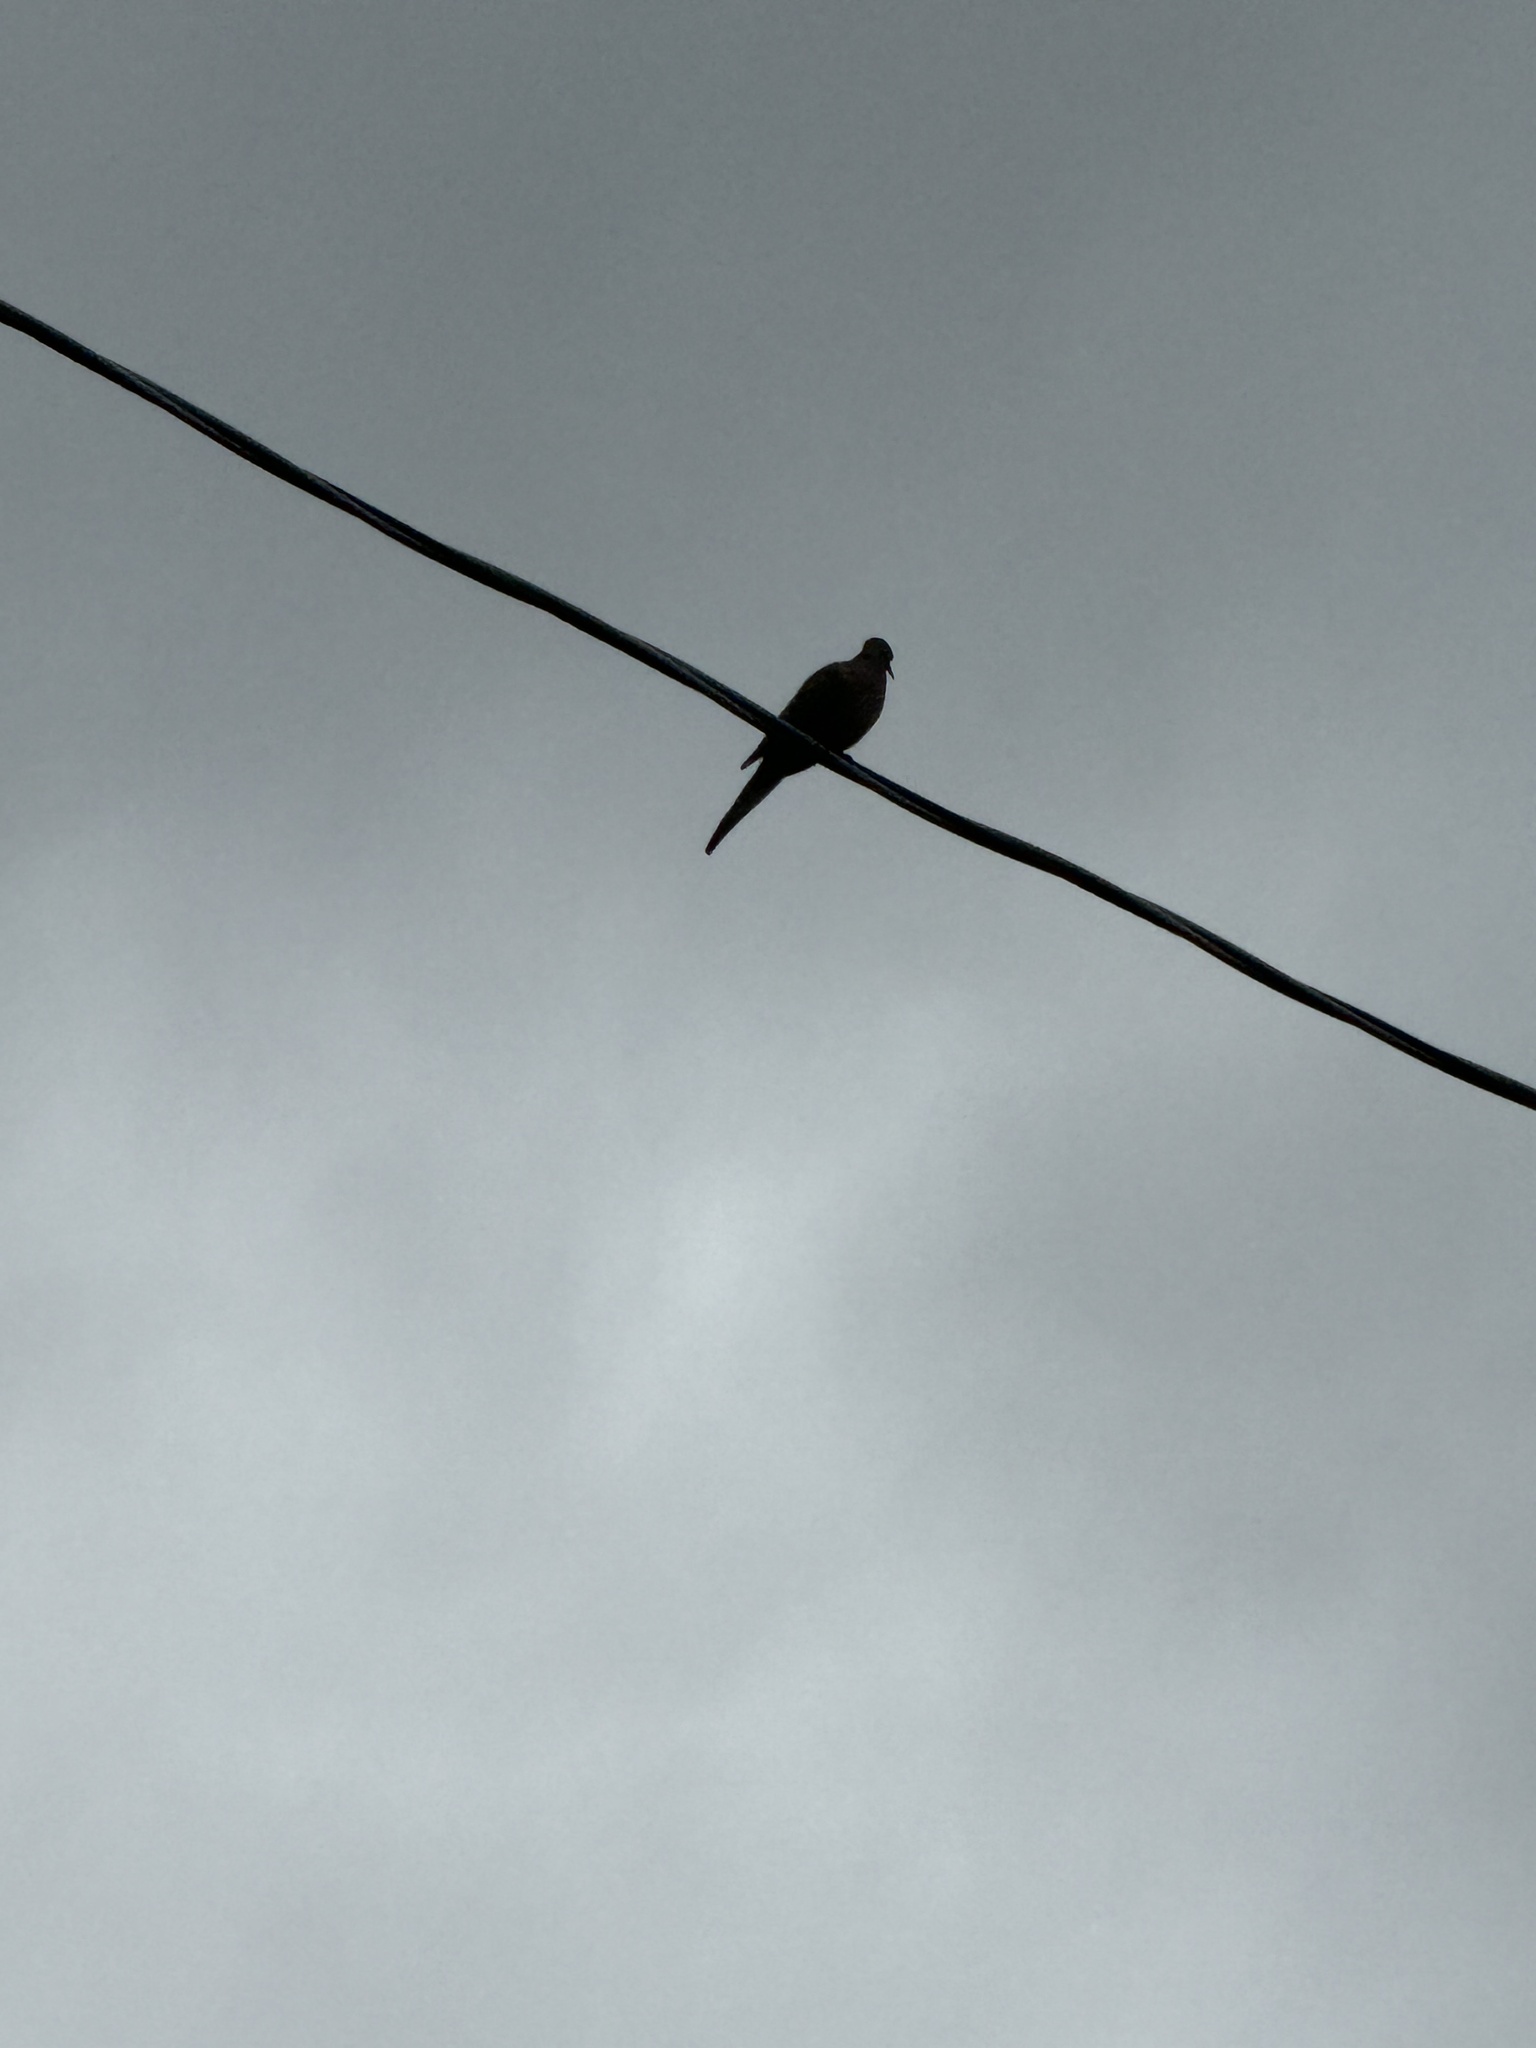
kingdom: Animalia
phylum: Chordata
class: Aves
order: Columbiformes
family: Columbidae
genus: Zenaida
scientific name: Zenaida macroura
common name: Mourning dove
